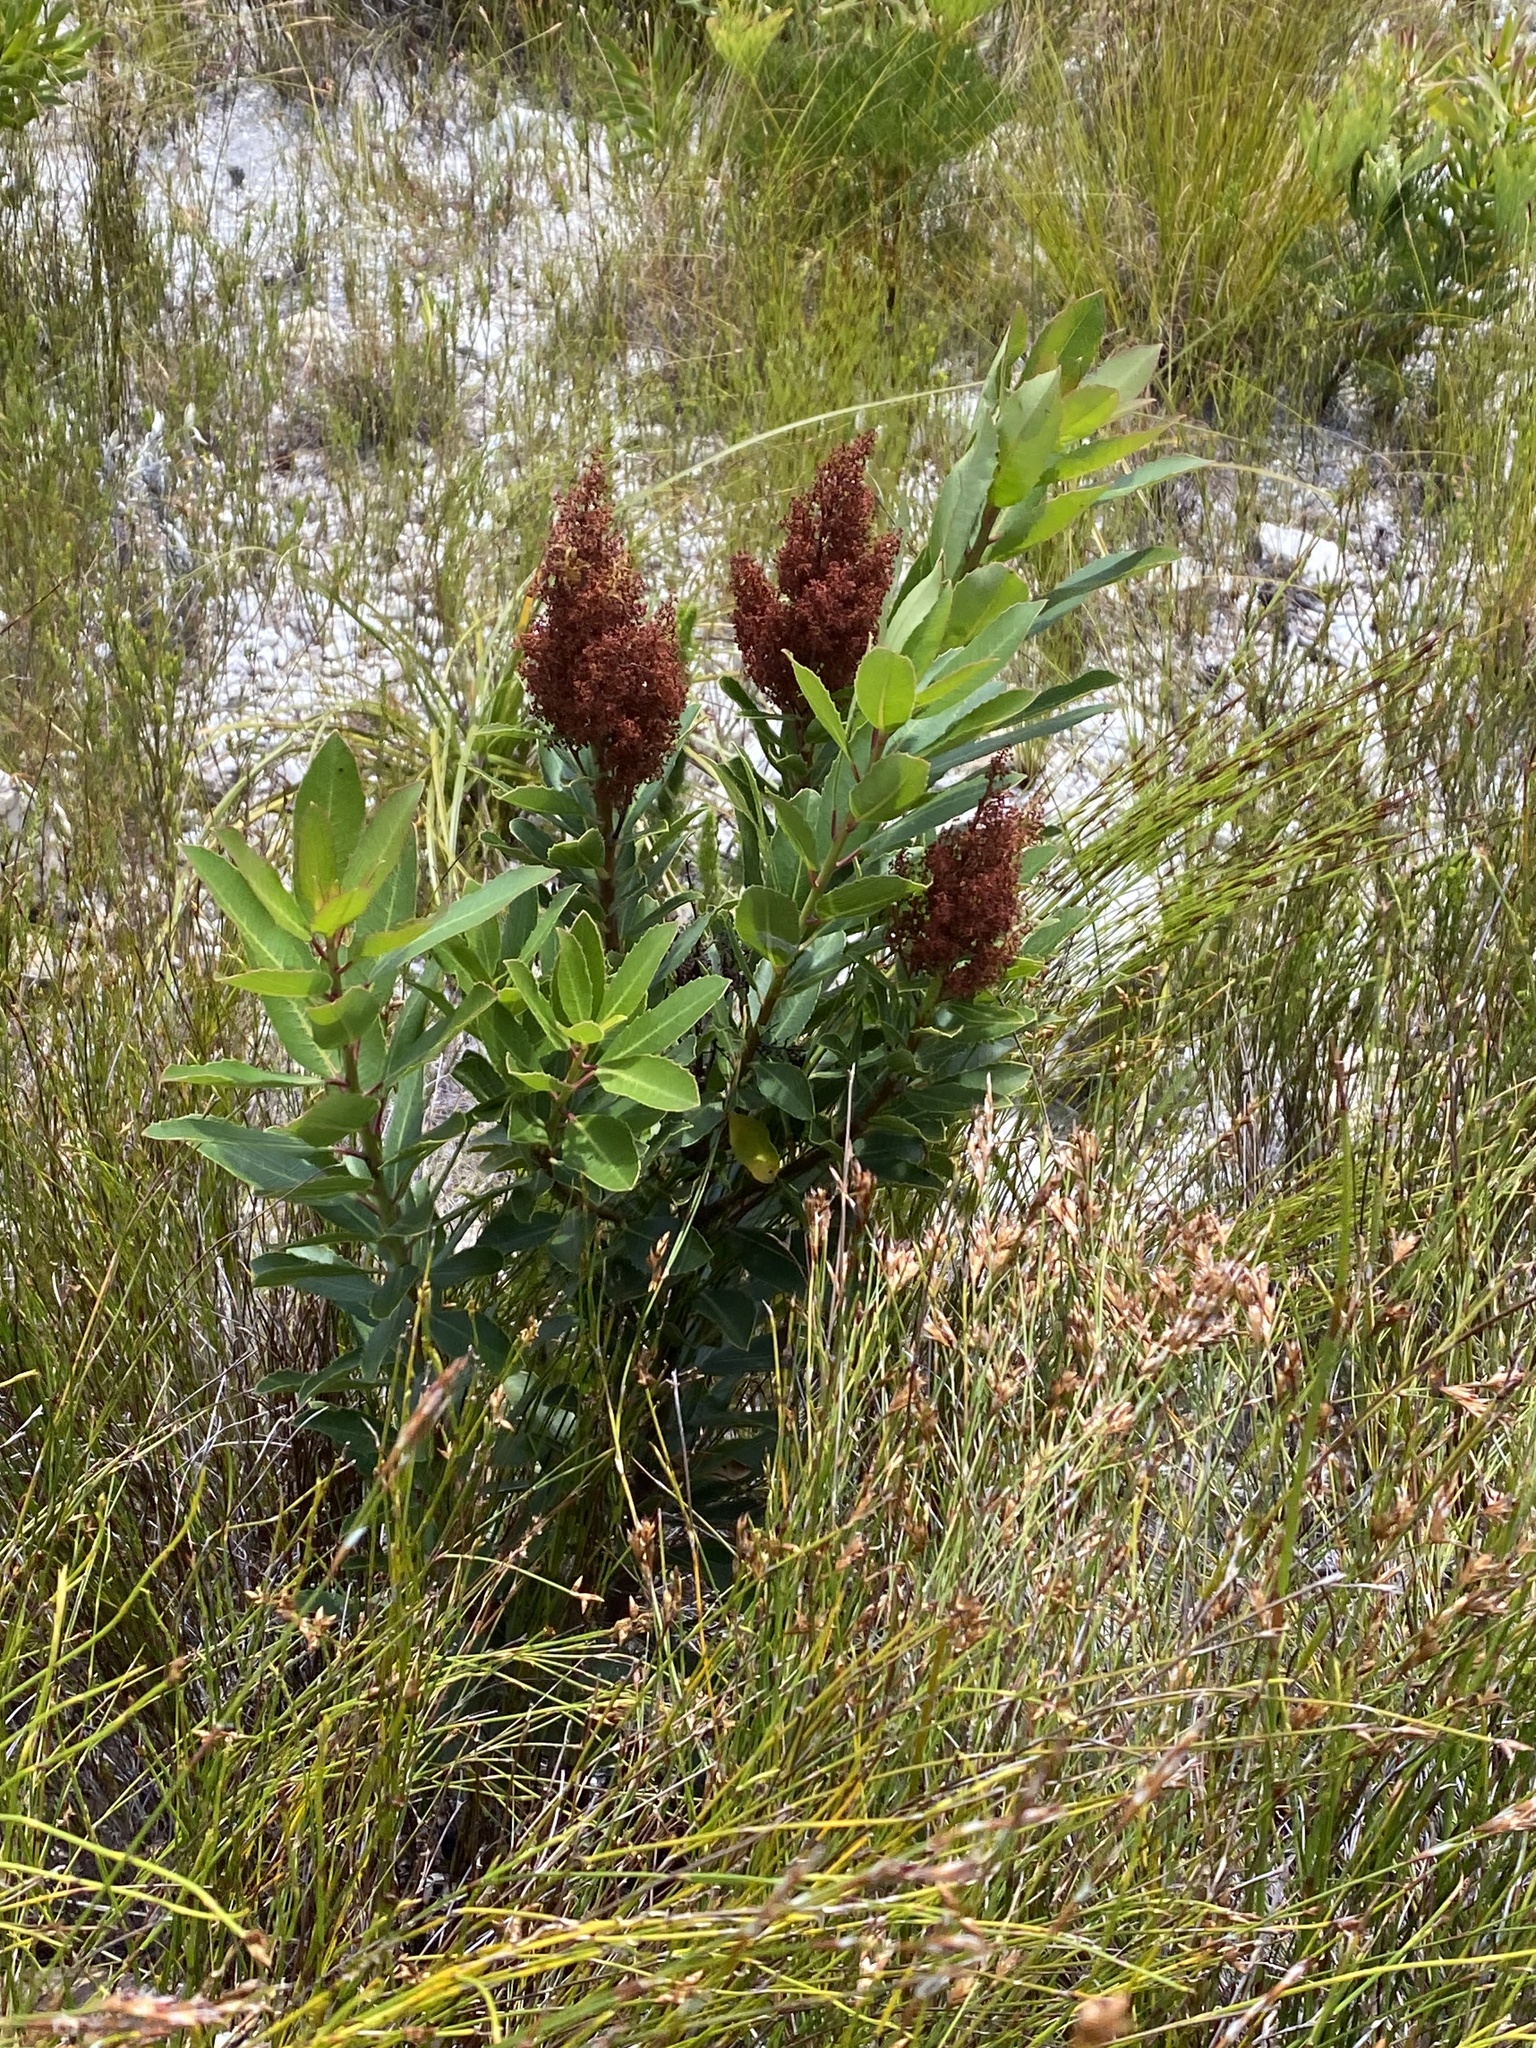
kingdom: Plantae
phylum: Tracheophyta
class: Magnoliopsida
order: Sapindales
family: Anacardiaceae
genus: Laurophyllus
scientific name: Laurophyllus capensis
